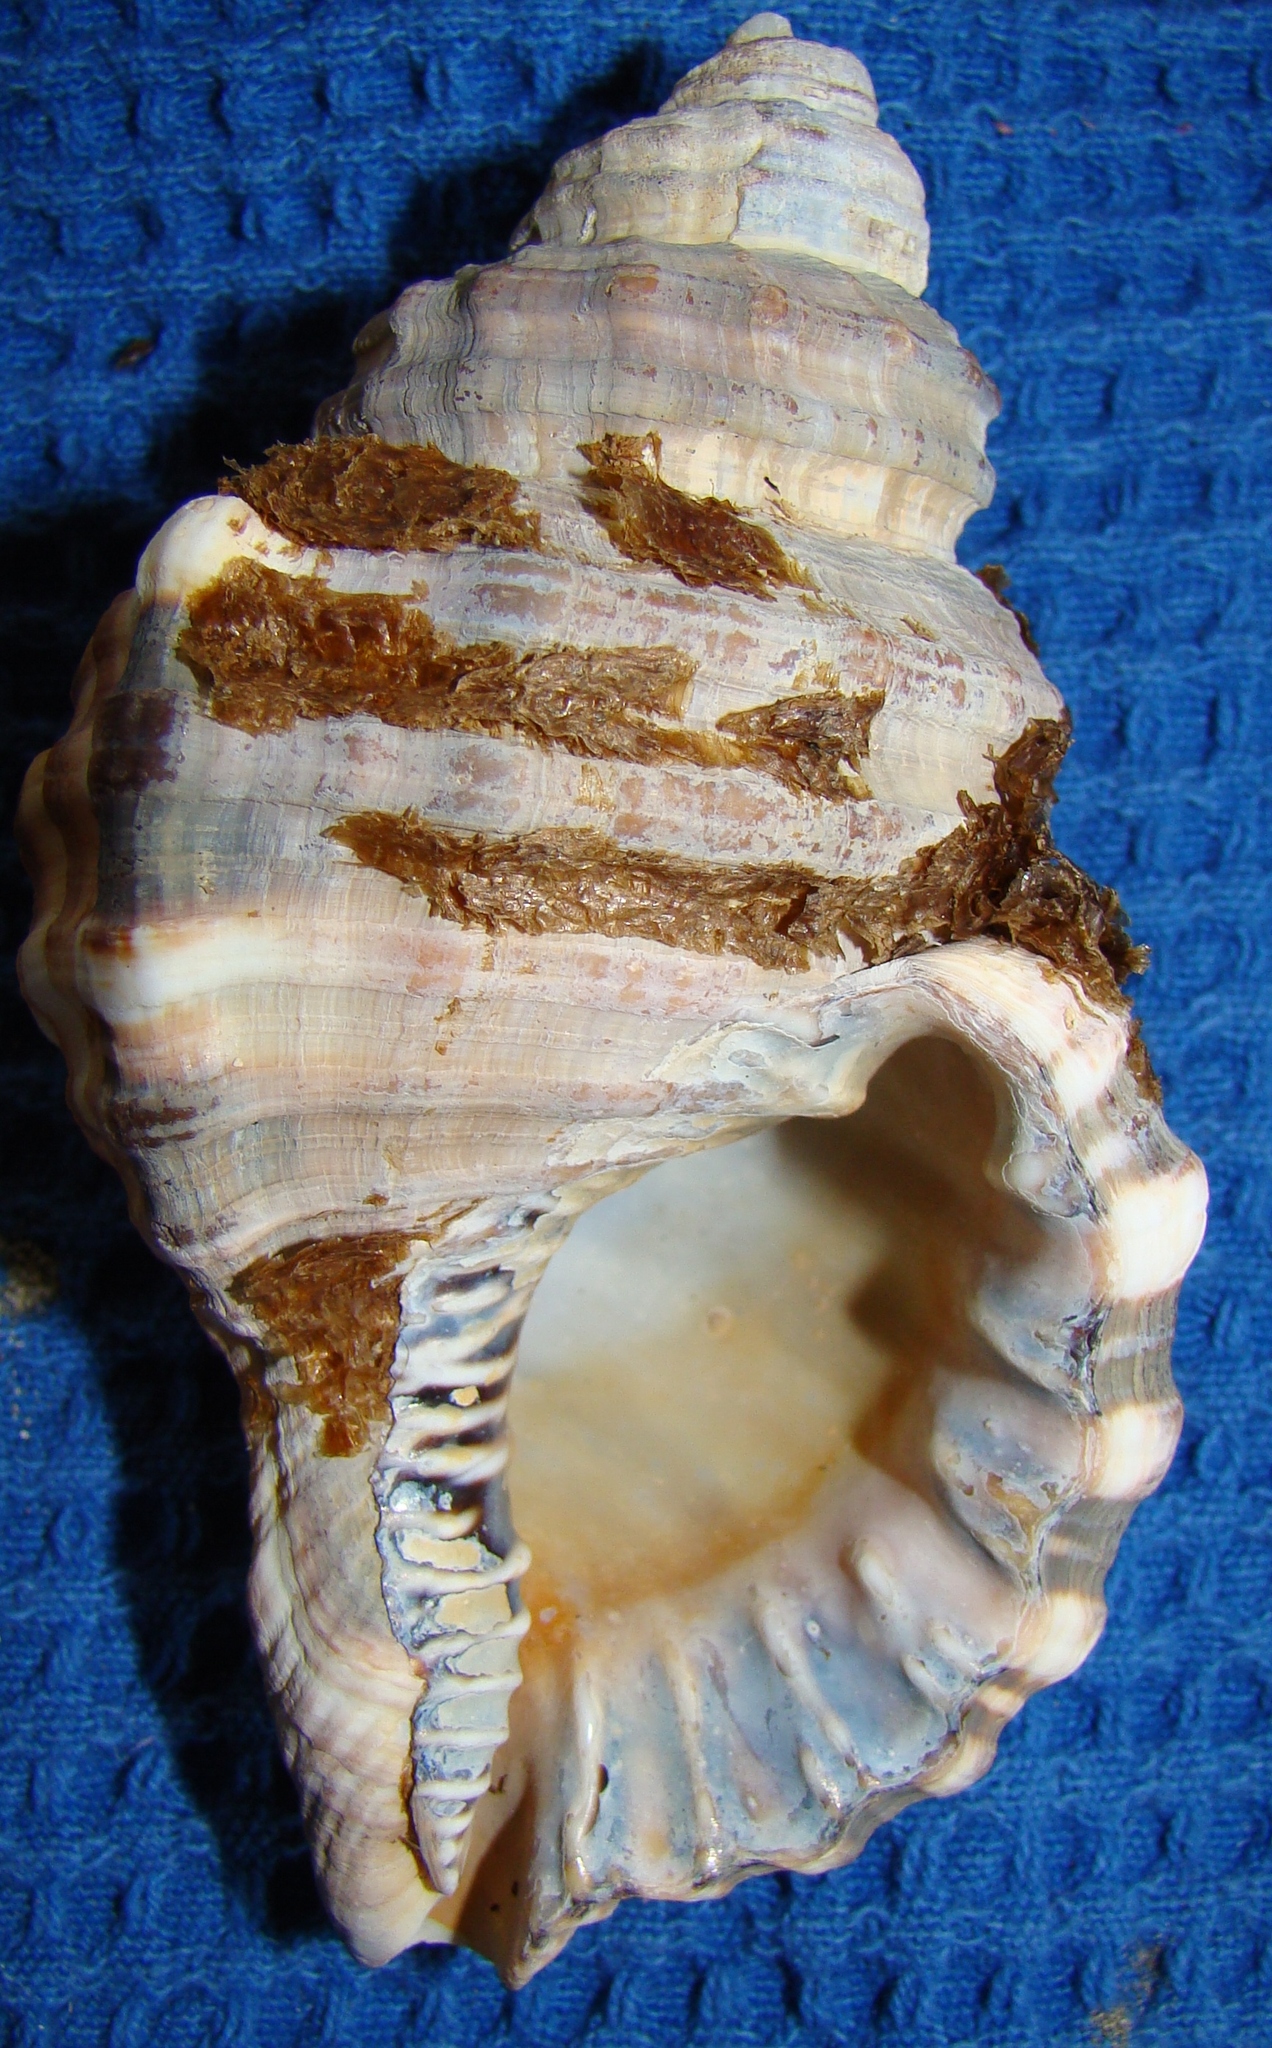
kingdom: Animalia
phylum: Mollusca
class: Gastropoda
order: Littorinimorpha
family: Cymatiidae
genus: Monoplex
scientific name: Monoplex parthenopeus
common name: Giant triton
